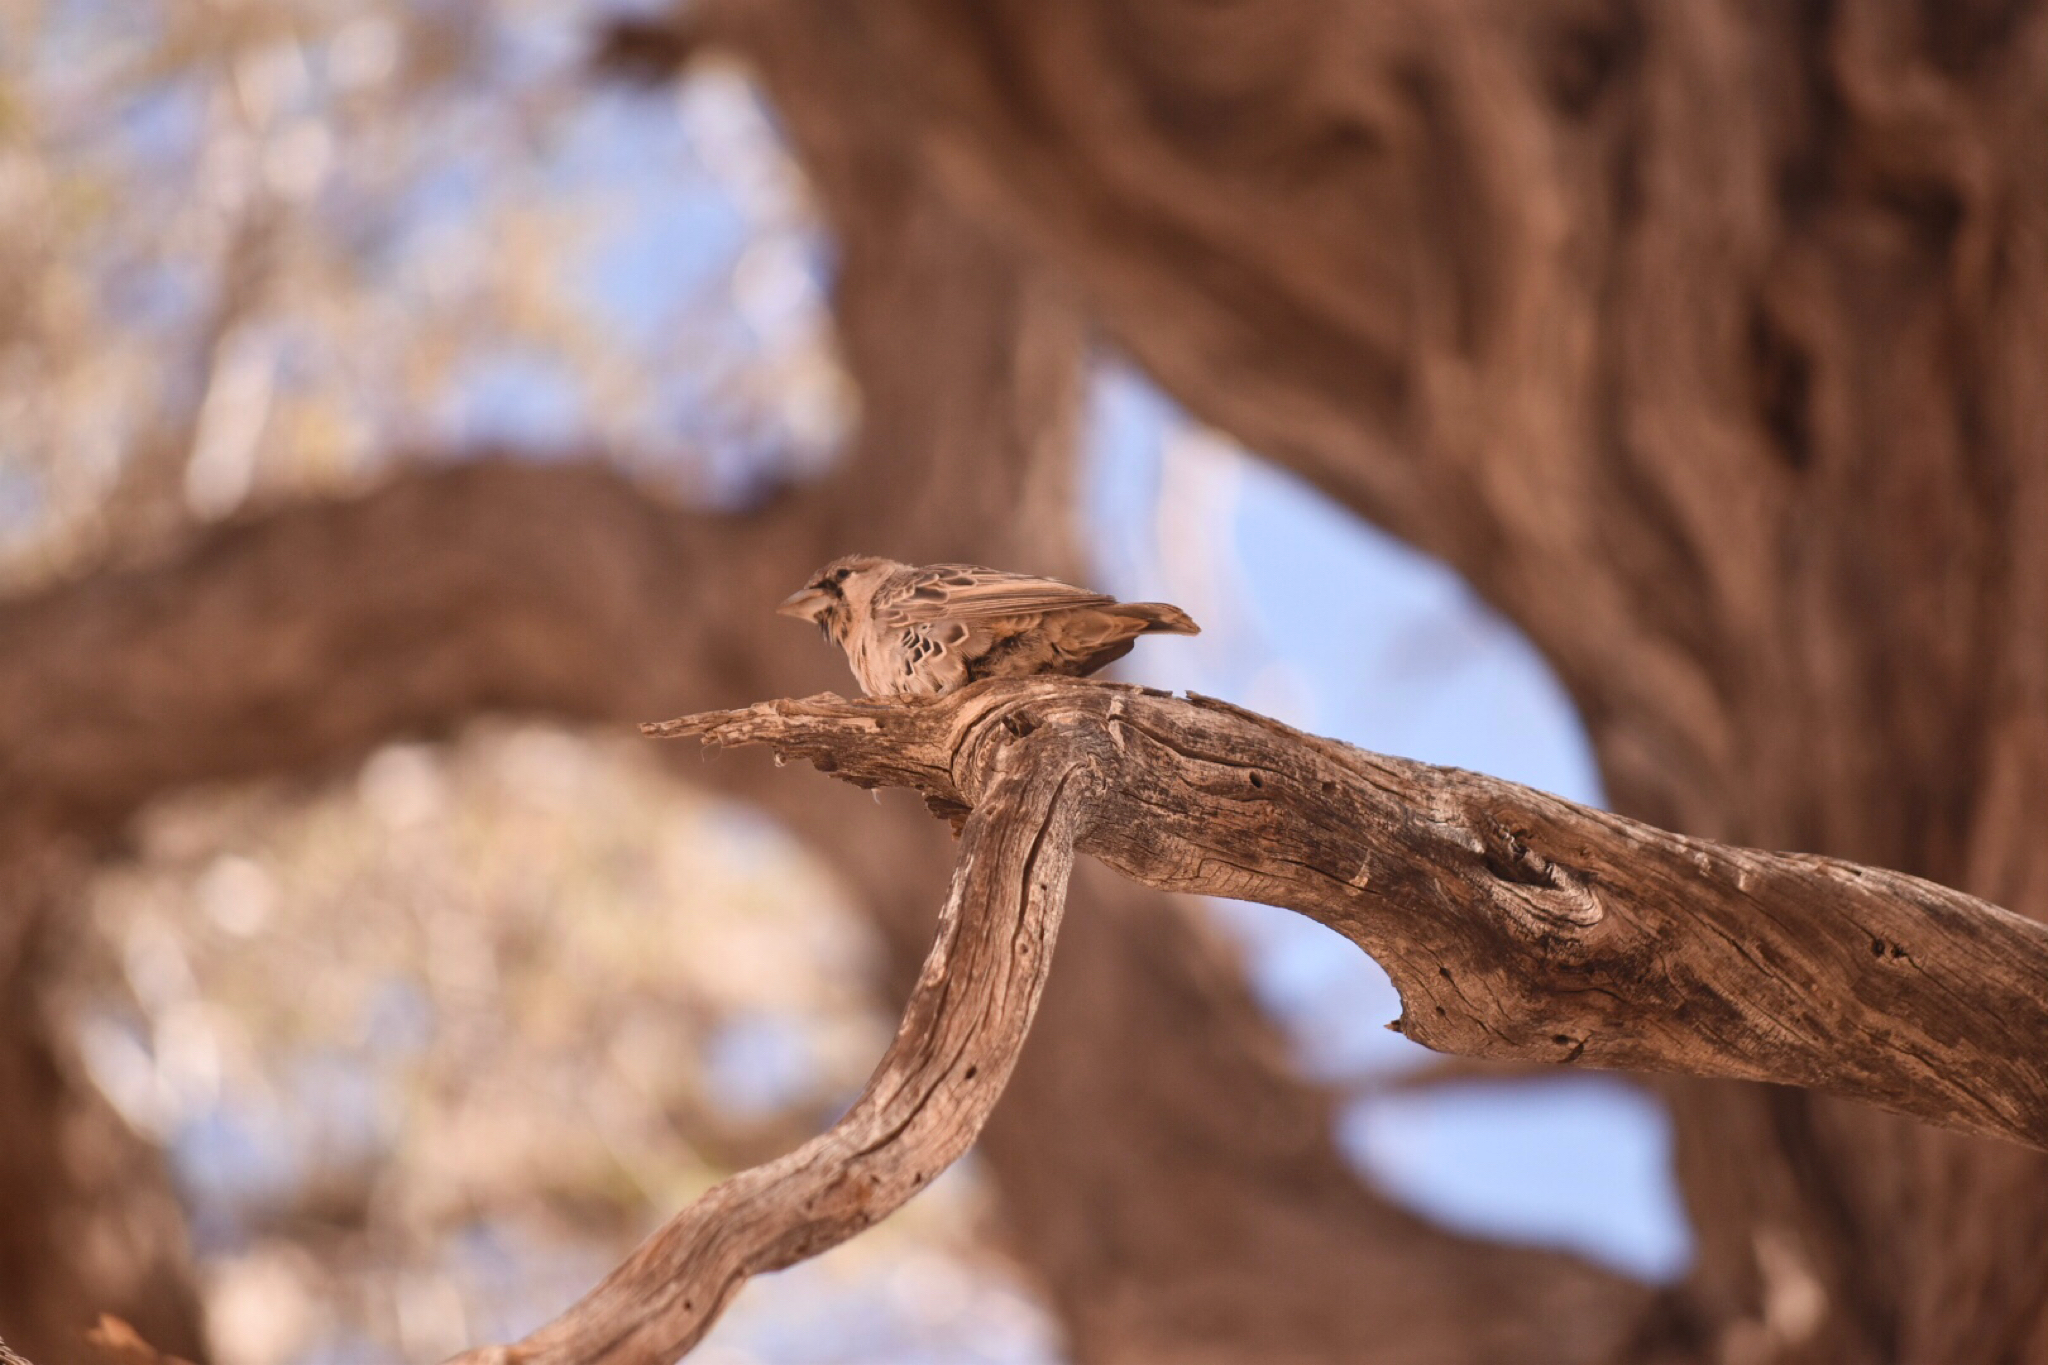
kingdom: Animalia
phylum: Chordata
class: Aves
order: Passeriformes
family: Passeridae
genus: Philetairus
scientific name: Philetairus socius
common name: Sociable weaver
